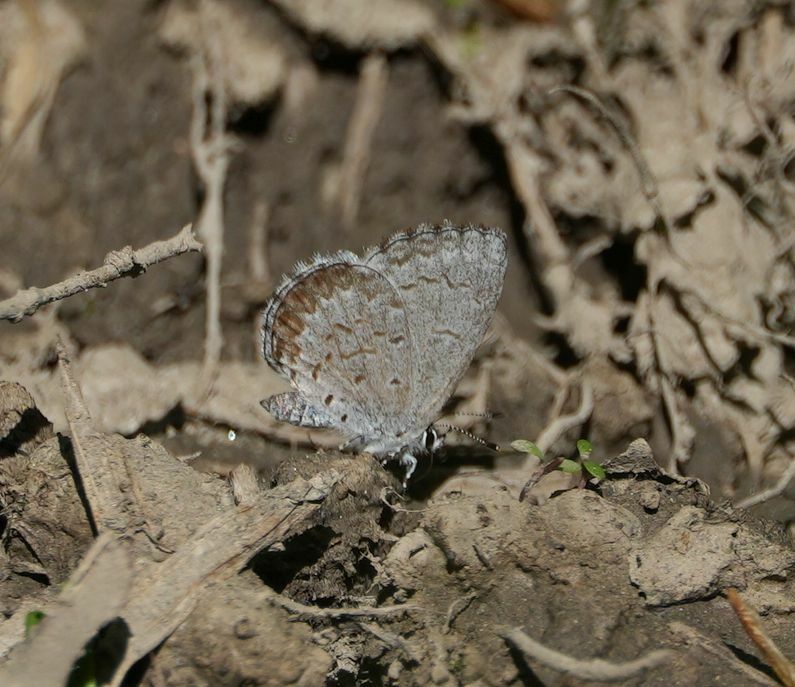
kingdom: Animalia
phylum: Arthropoda
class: Insecta
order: Lepidoptera
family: Lycaenidae
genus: Celastrina
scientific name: Celastrina lucia
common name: Lucia azure
